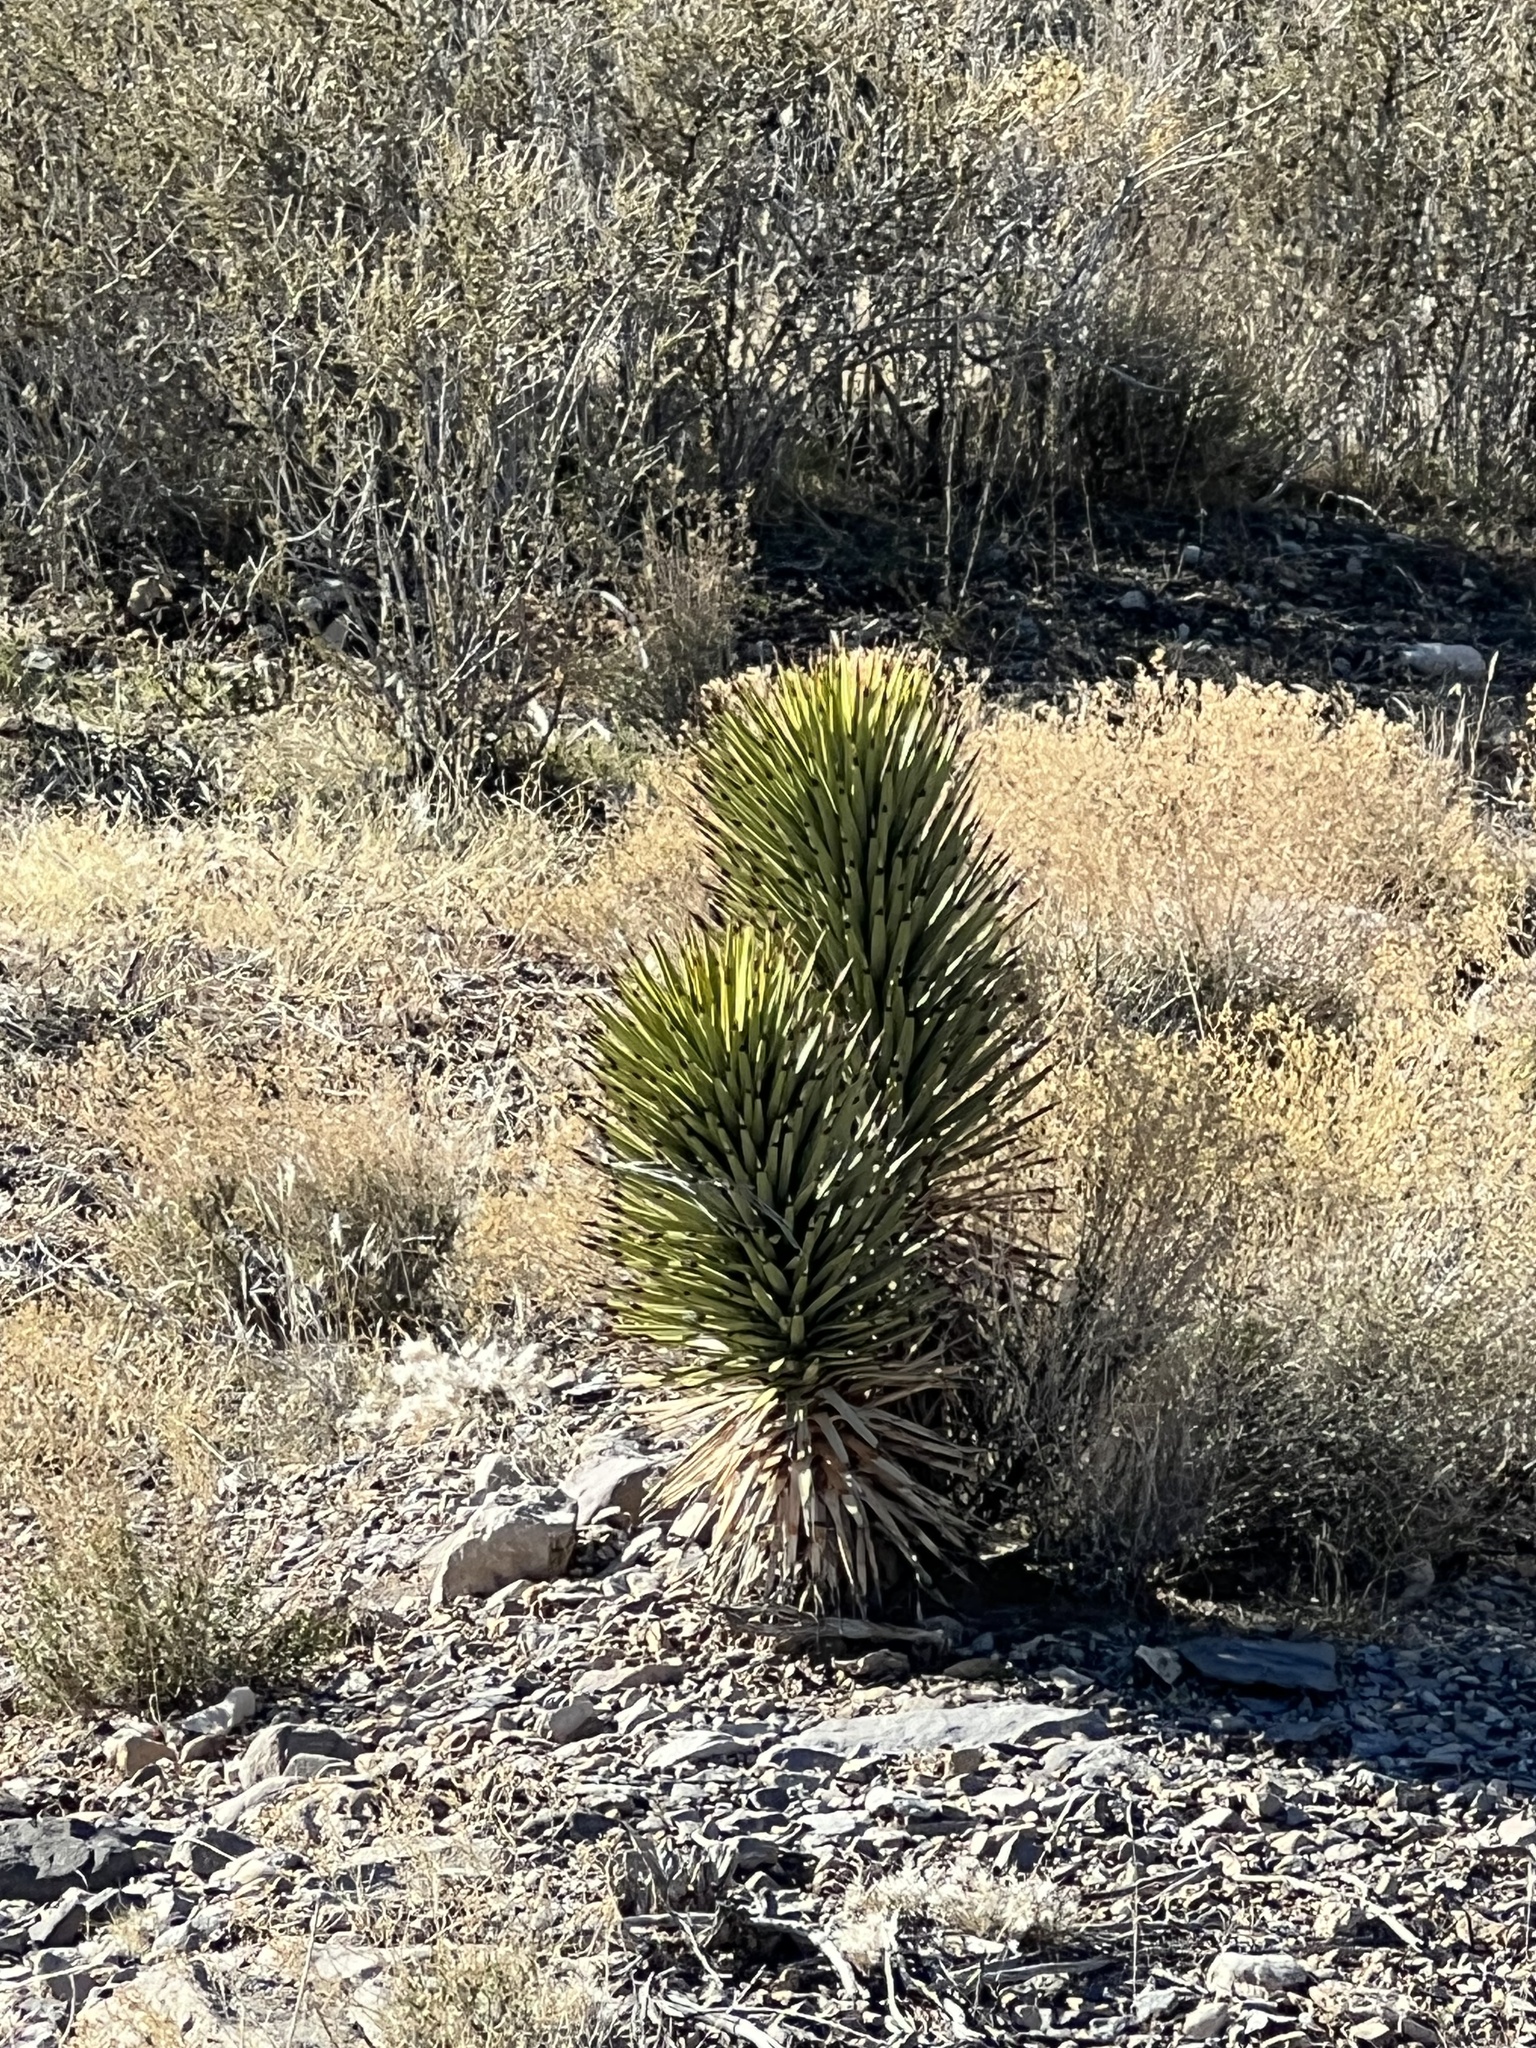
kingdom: Plantae
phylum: Tracheophyta
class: Liliopsida
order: Asparagales
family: Asparagaceae
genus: Yucca
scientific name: Yucca brevifolia
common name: Joshua tree
